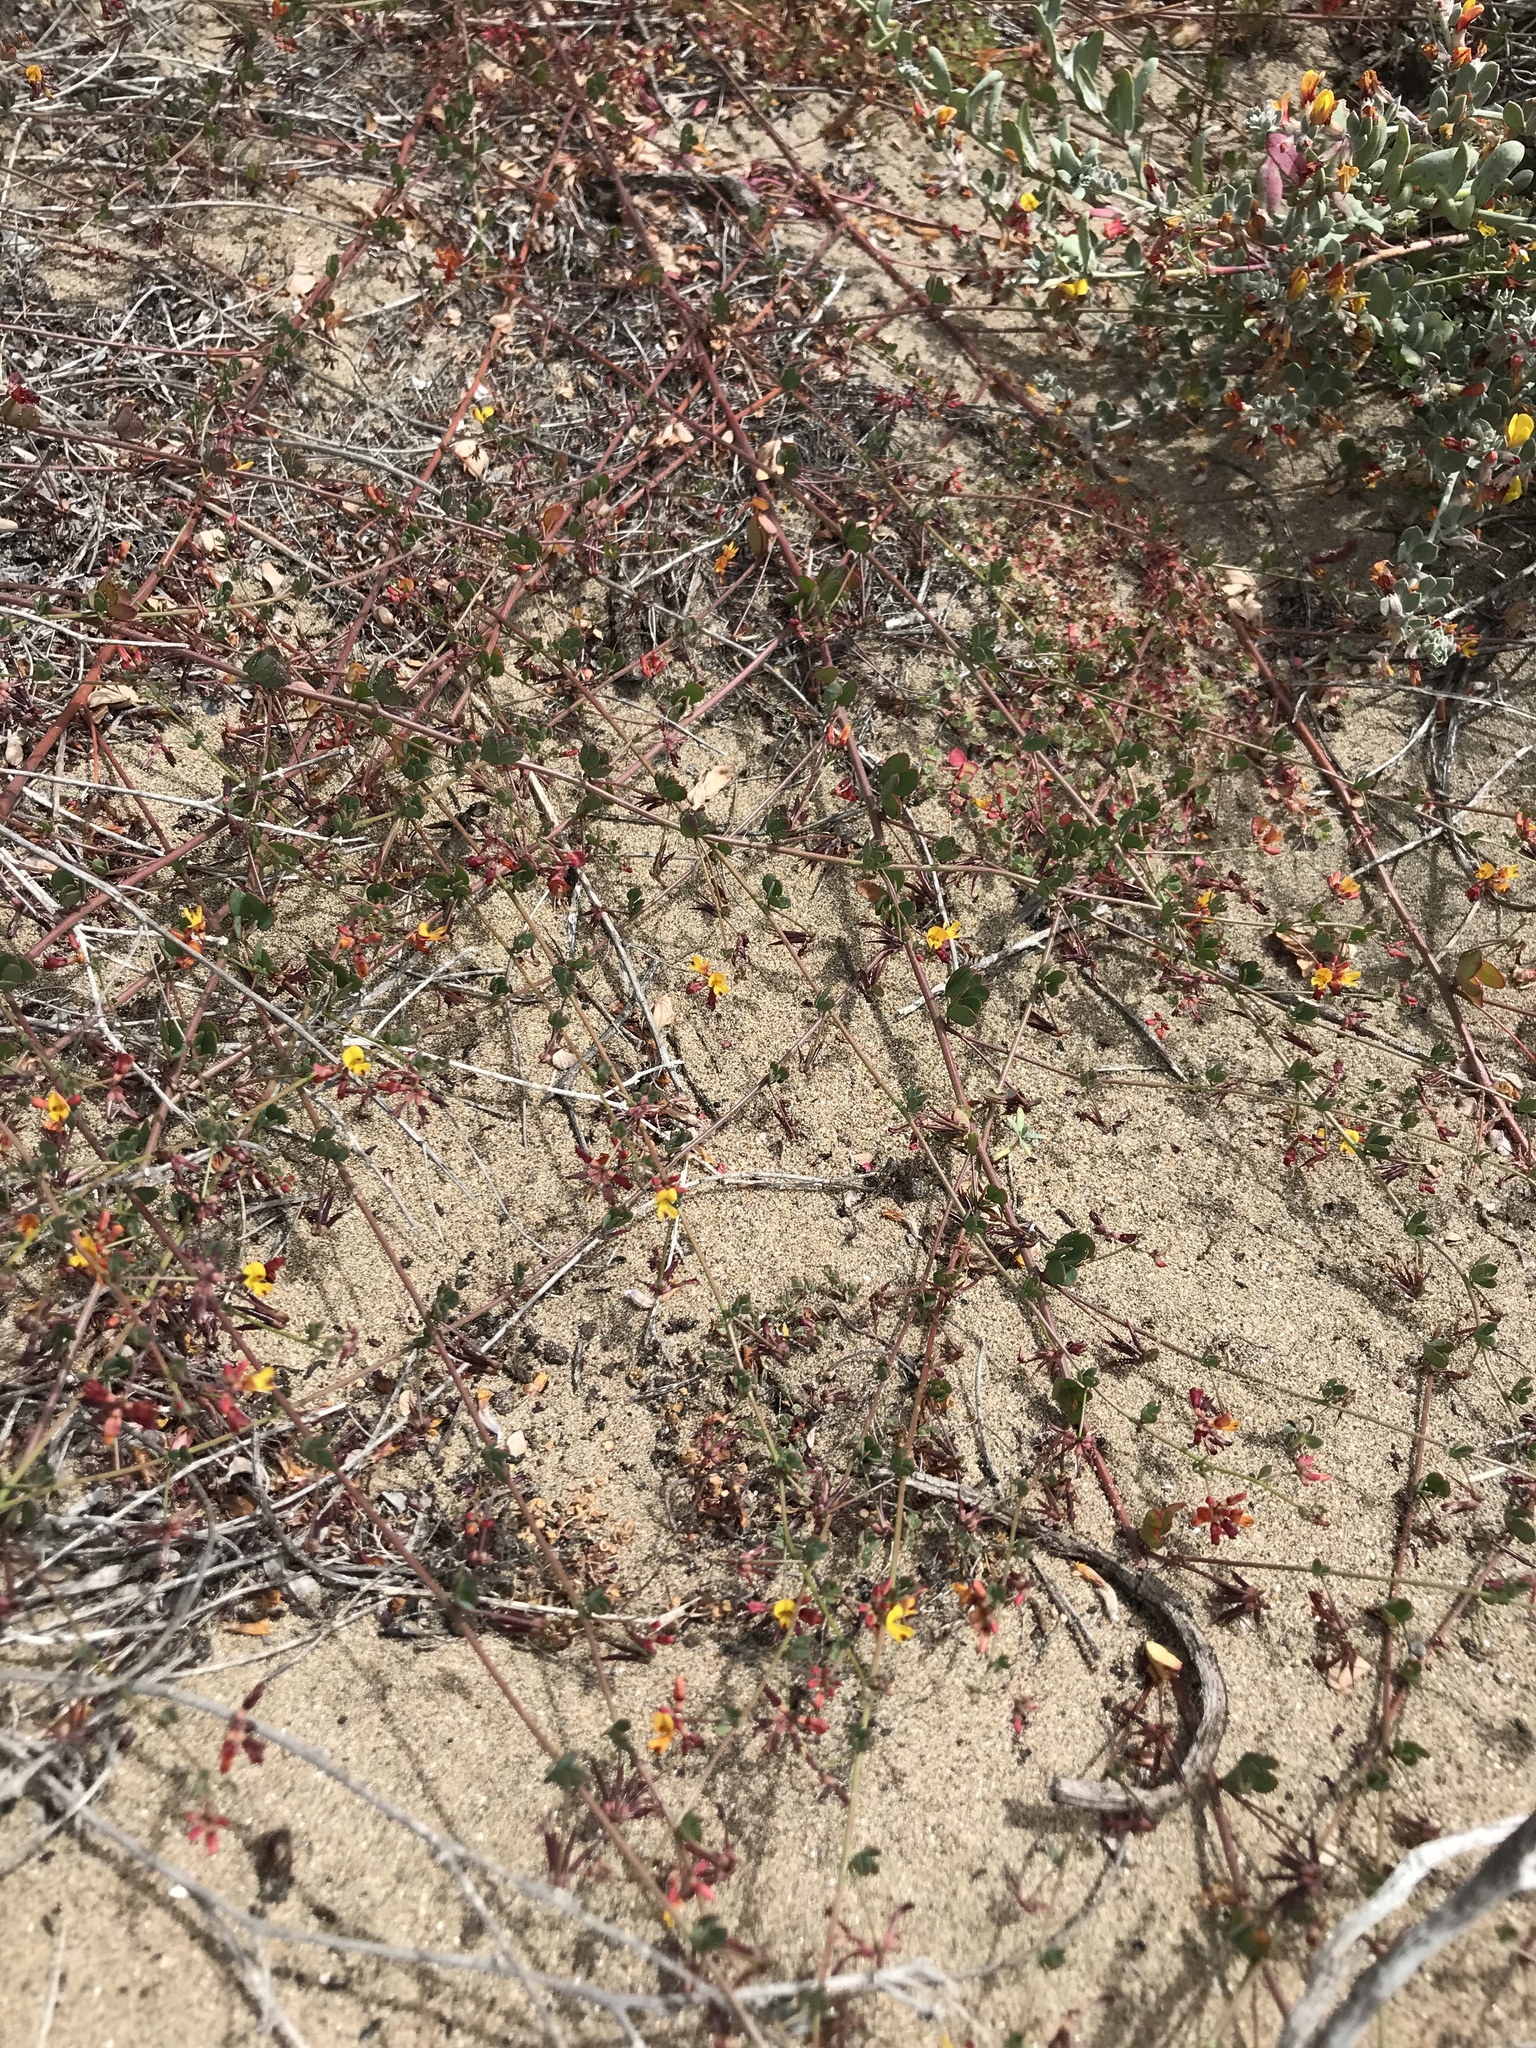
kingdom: Plantae
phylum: Tracheophyta
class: Magnoliopsida
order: Fabales
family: Fabaceae
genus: Acmispon
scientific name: Acmispon prostratus
